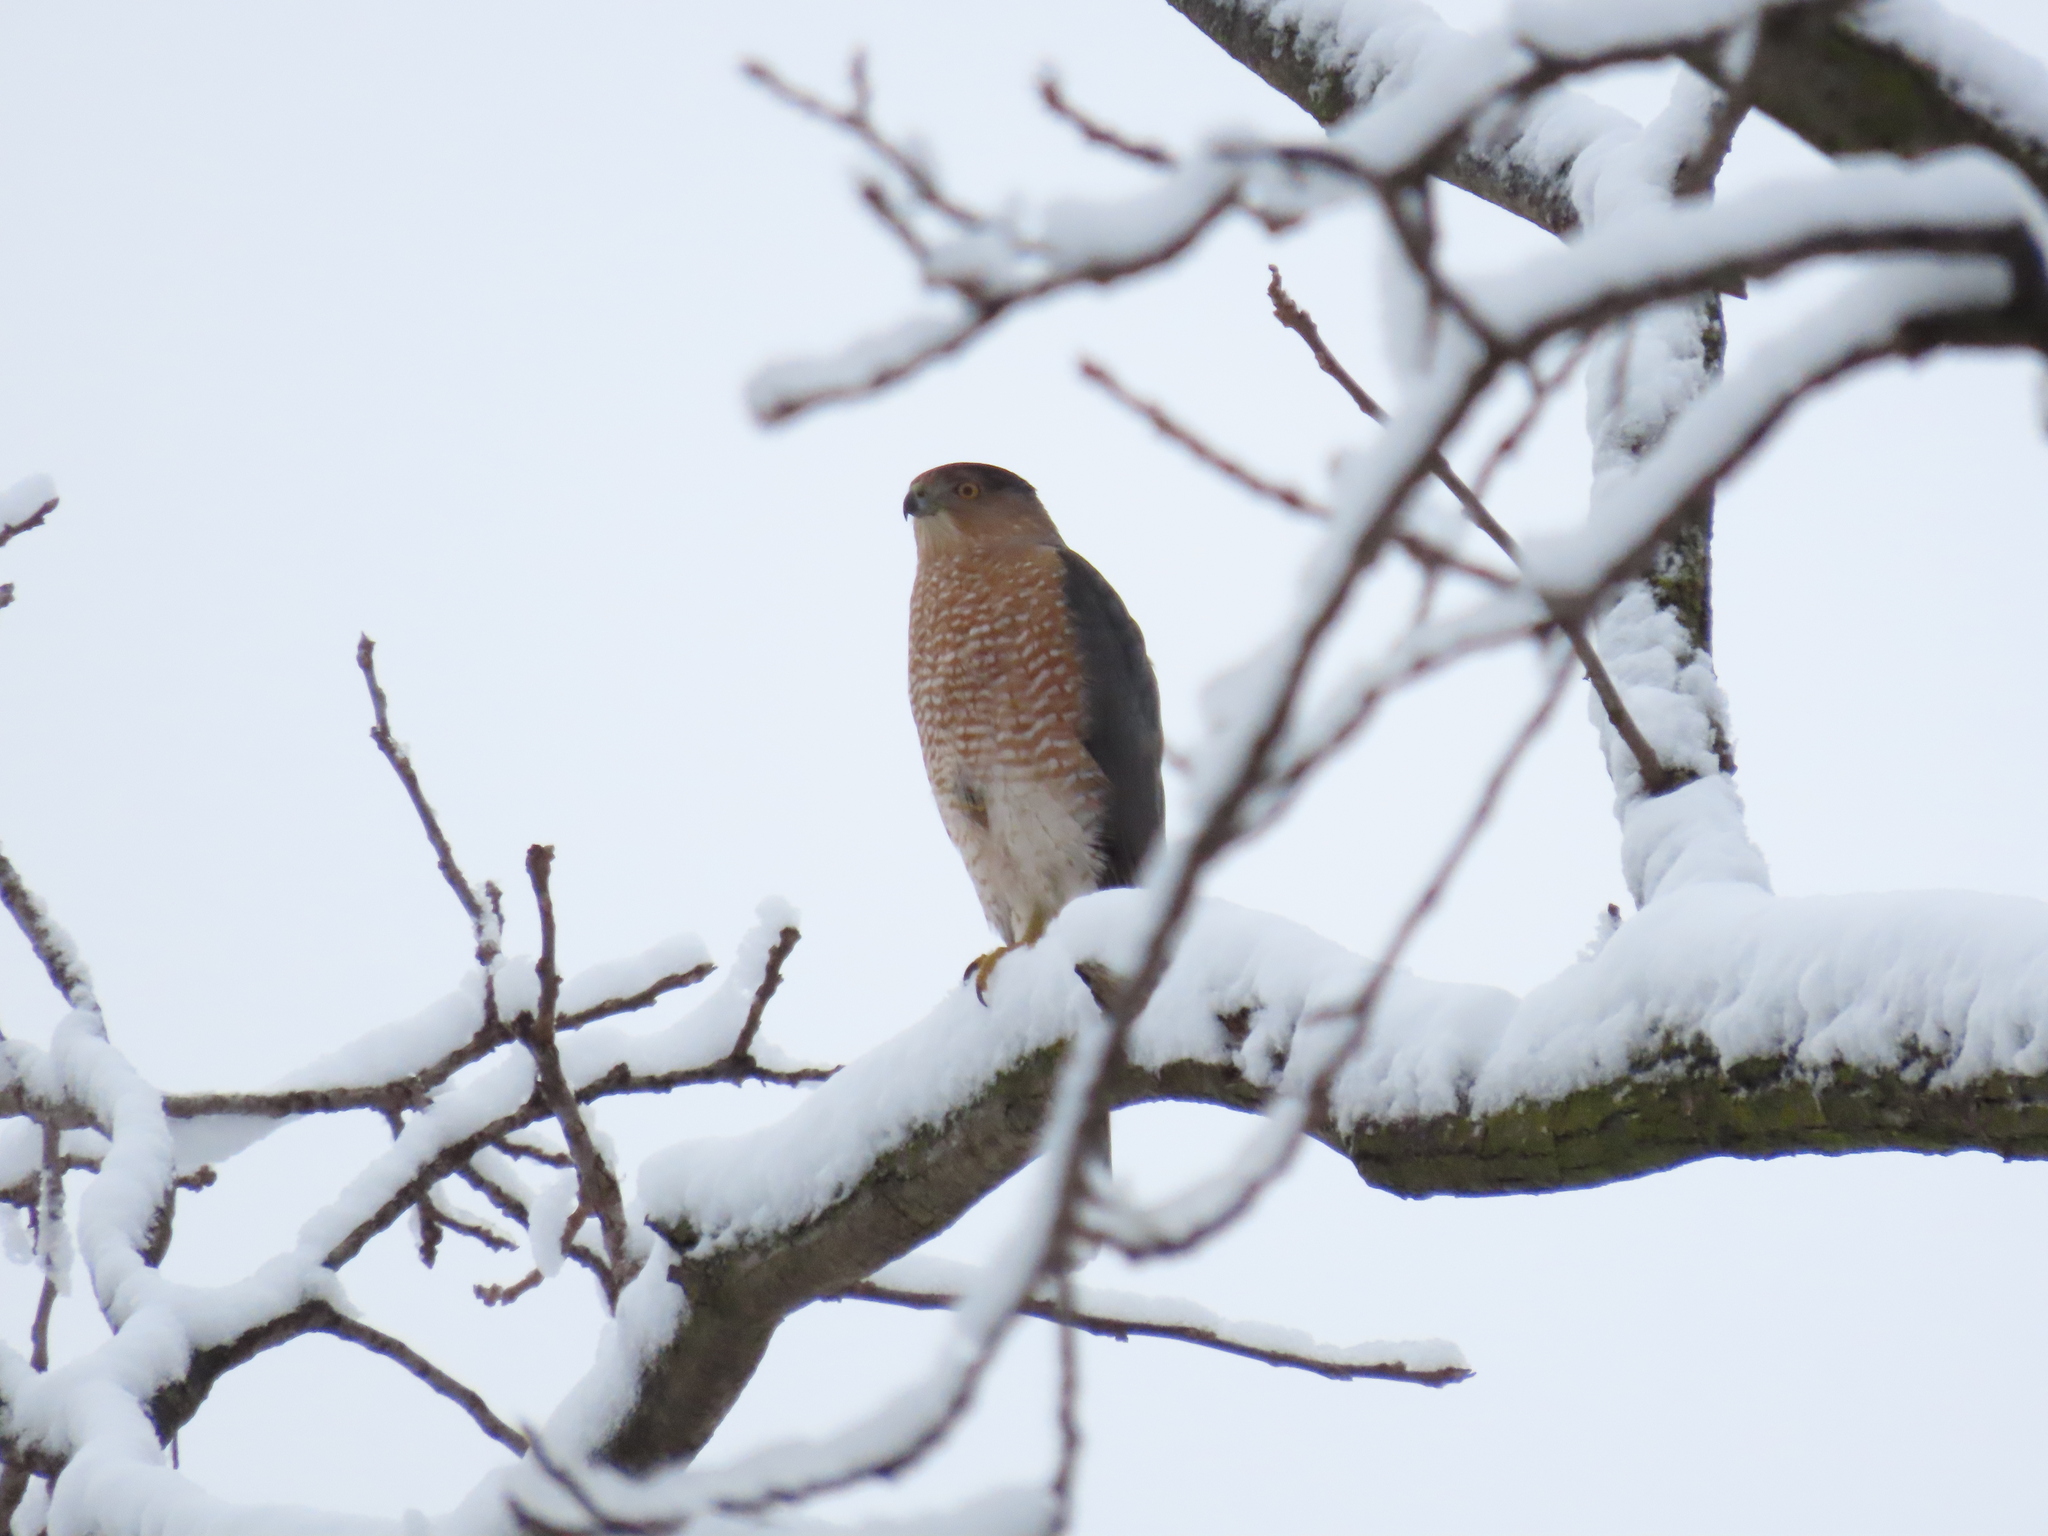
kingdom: Animalia
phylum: Chordata
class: Aves
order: Accipitriformes
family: Accipitridae
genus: Accipiter
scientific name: Accipiter cooperii
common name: Cooper's hawk
